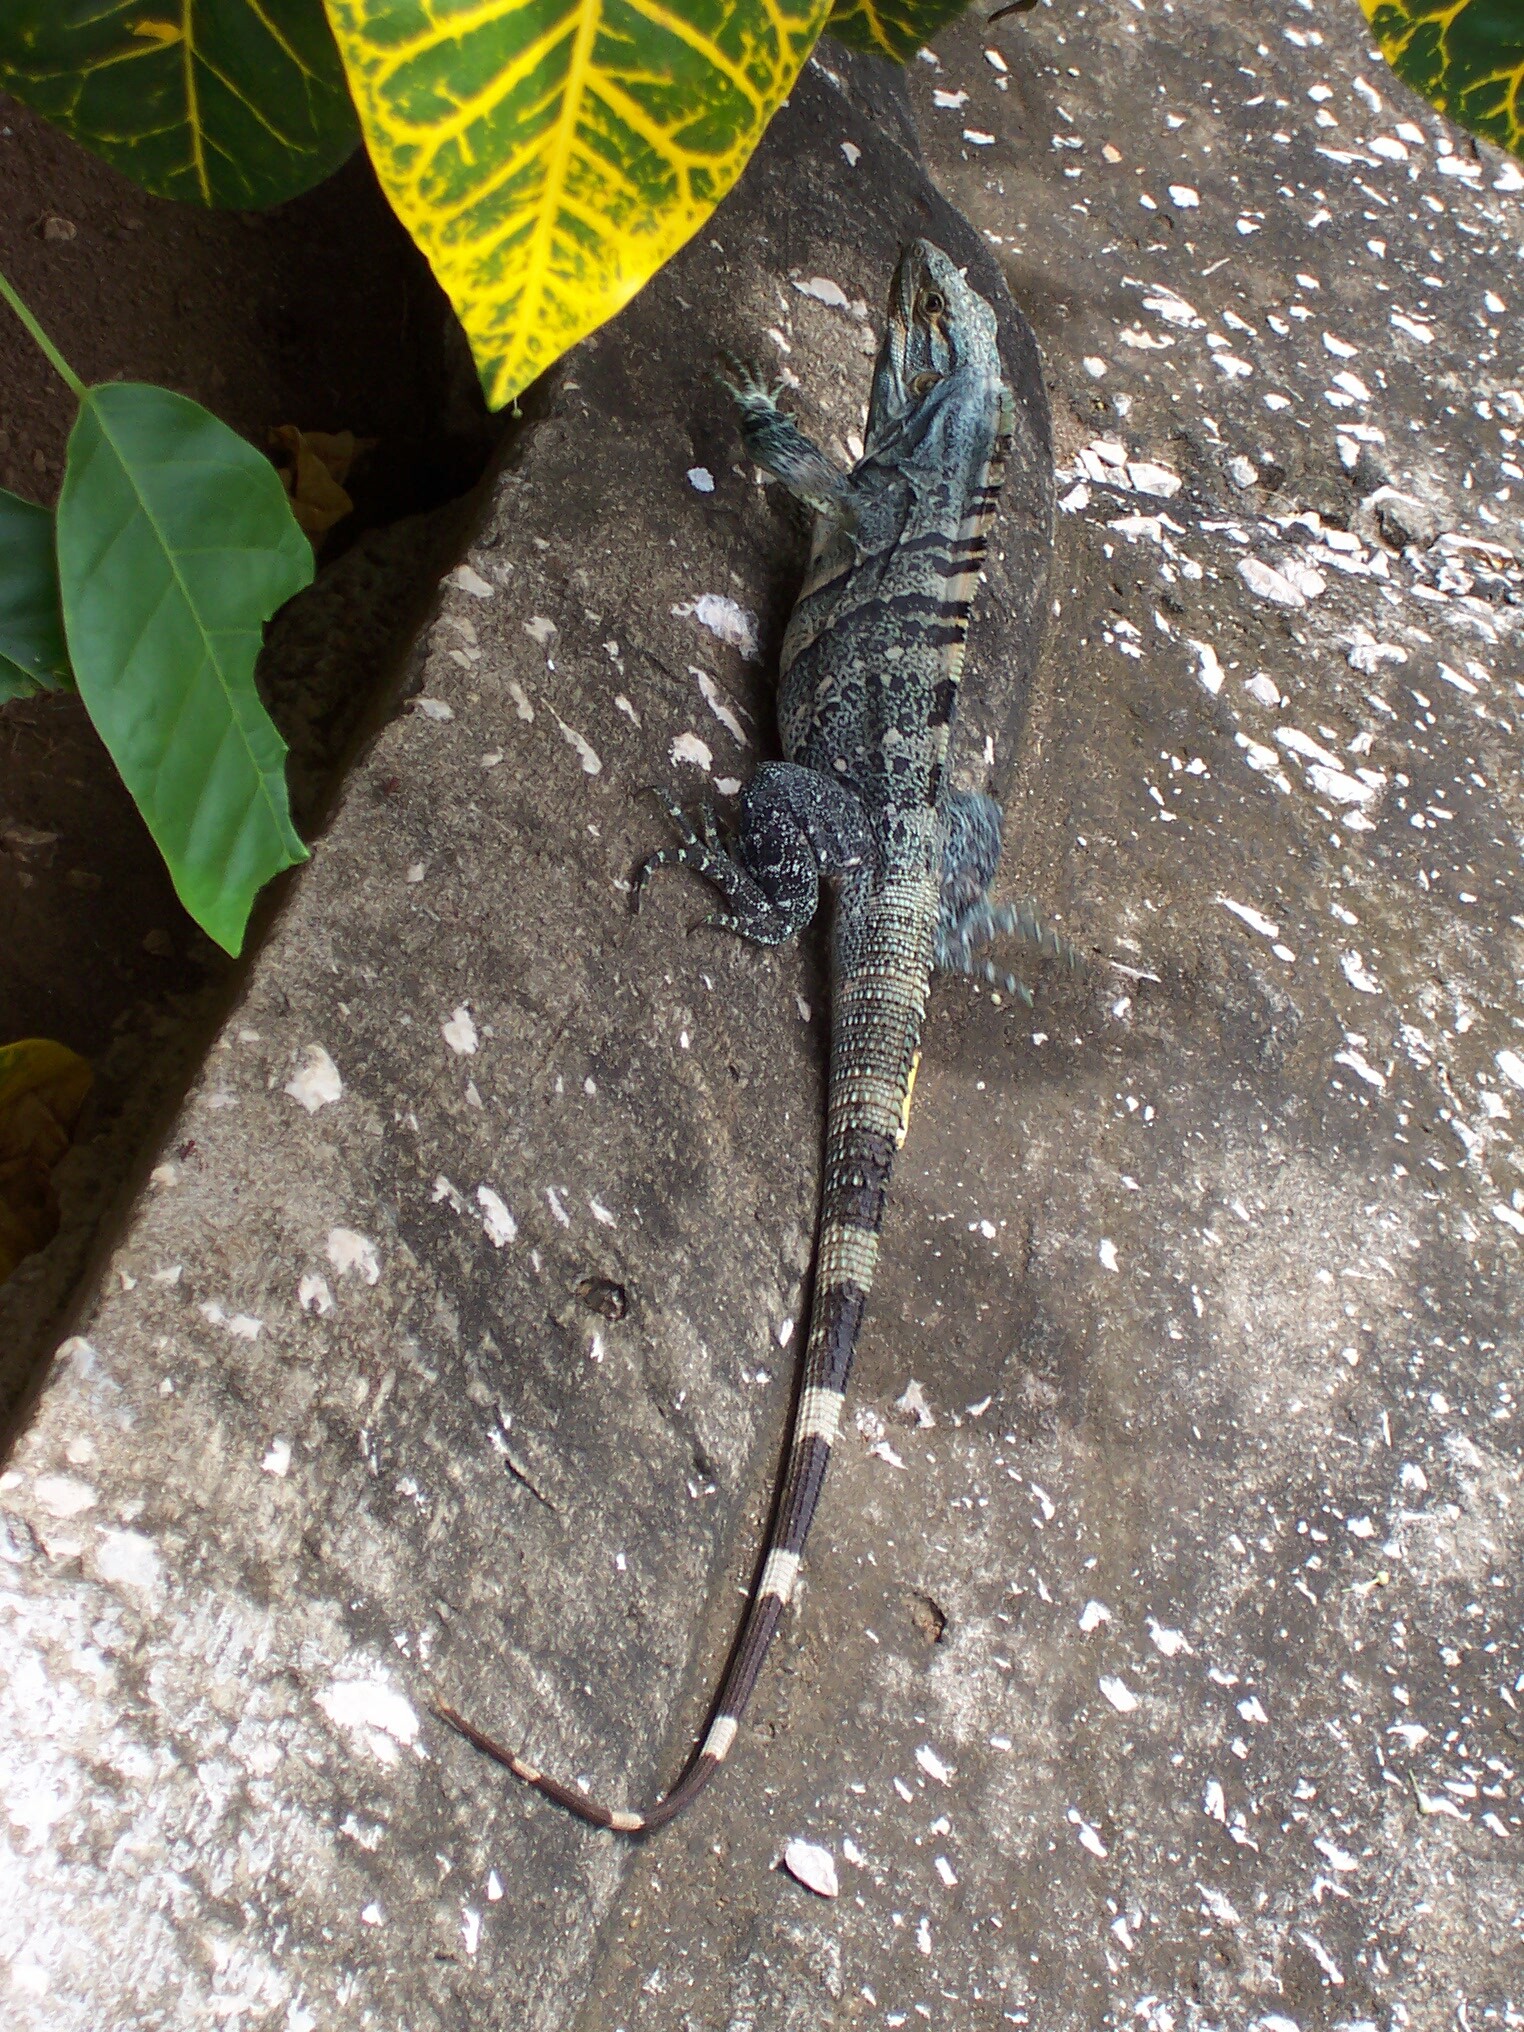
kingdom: Animalia
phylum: Chordata
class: Squamata
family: Iguanidae
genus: Ctenosaura
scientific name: Ctenosaura similis
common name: Black spiny-tailed iguana
